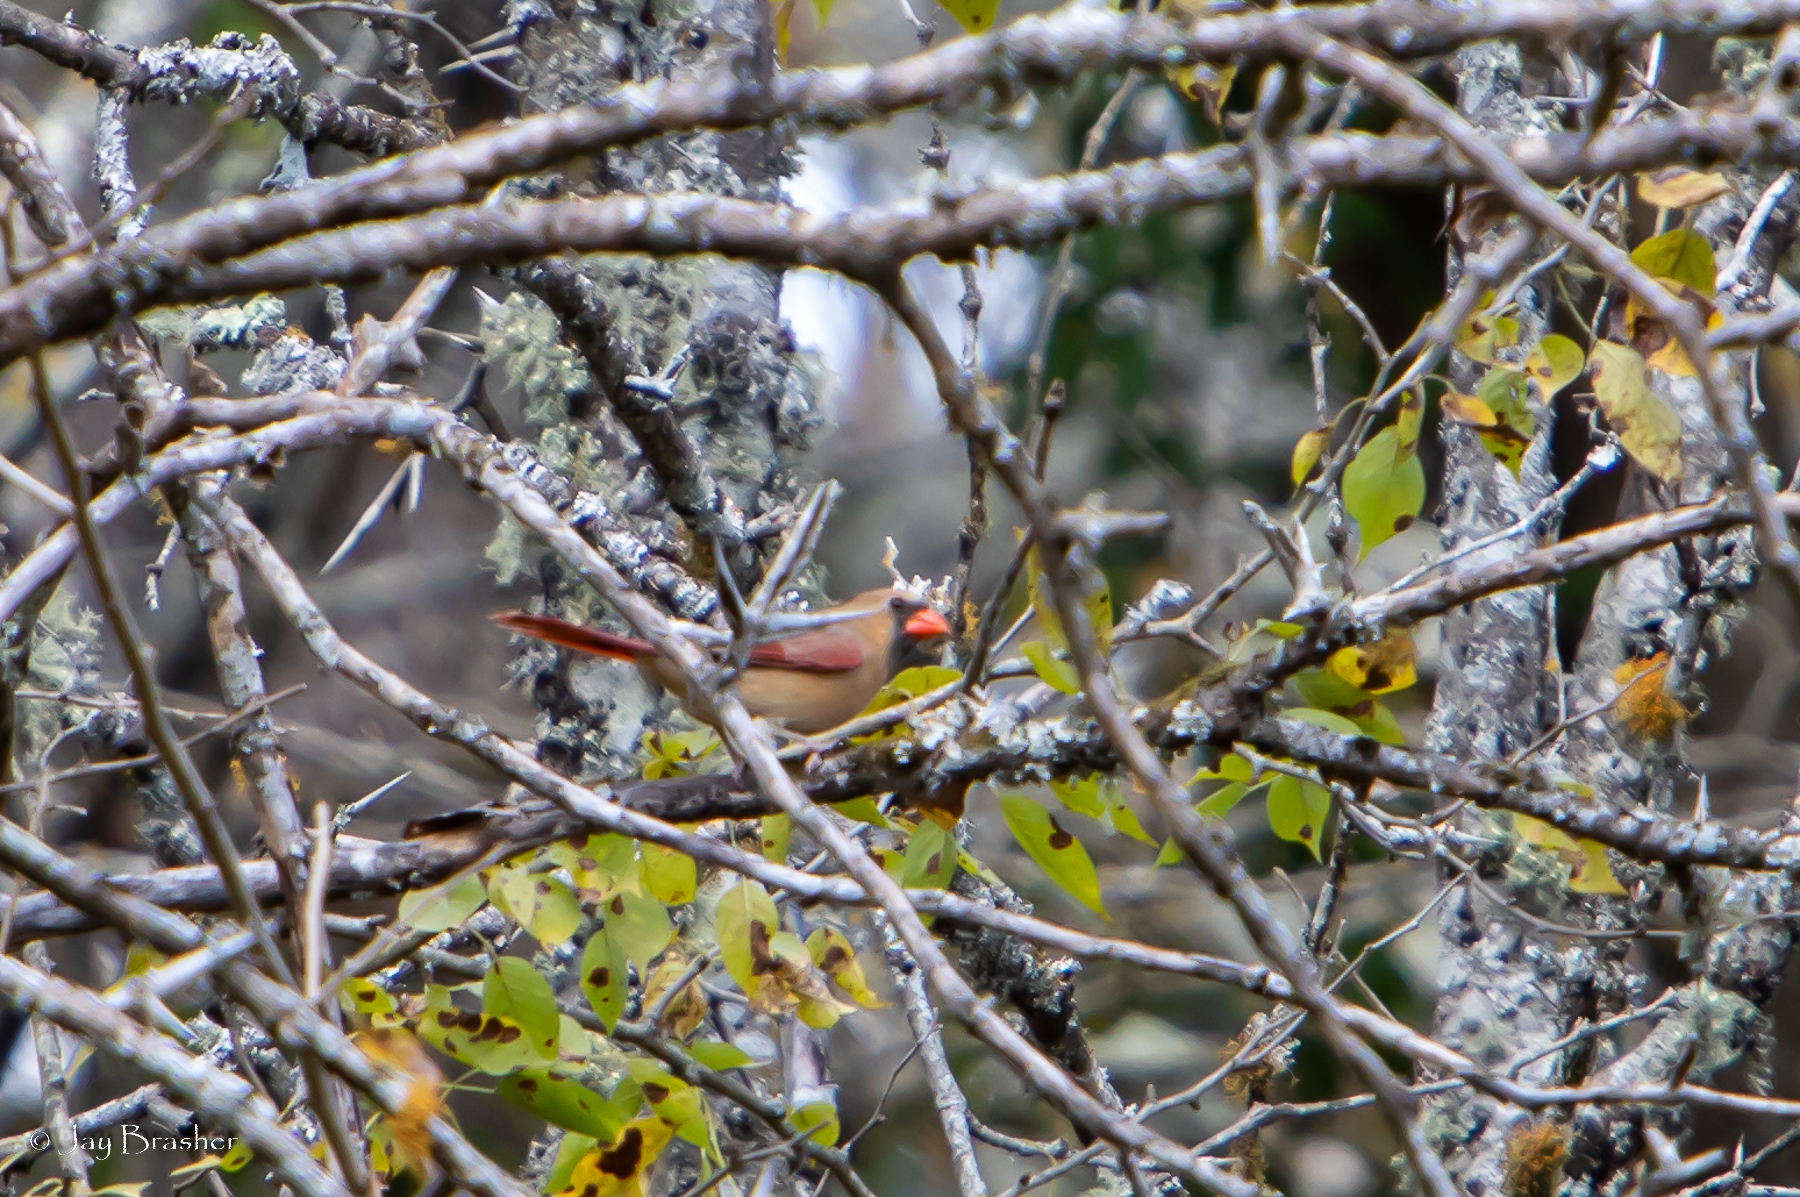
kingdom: Animalia
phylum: Chordata
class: Aves
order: Passeriformes
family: Cardinalidae
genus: Cardinalis
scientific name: Cardinalis cardinalis
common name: Northern cardinal
